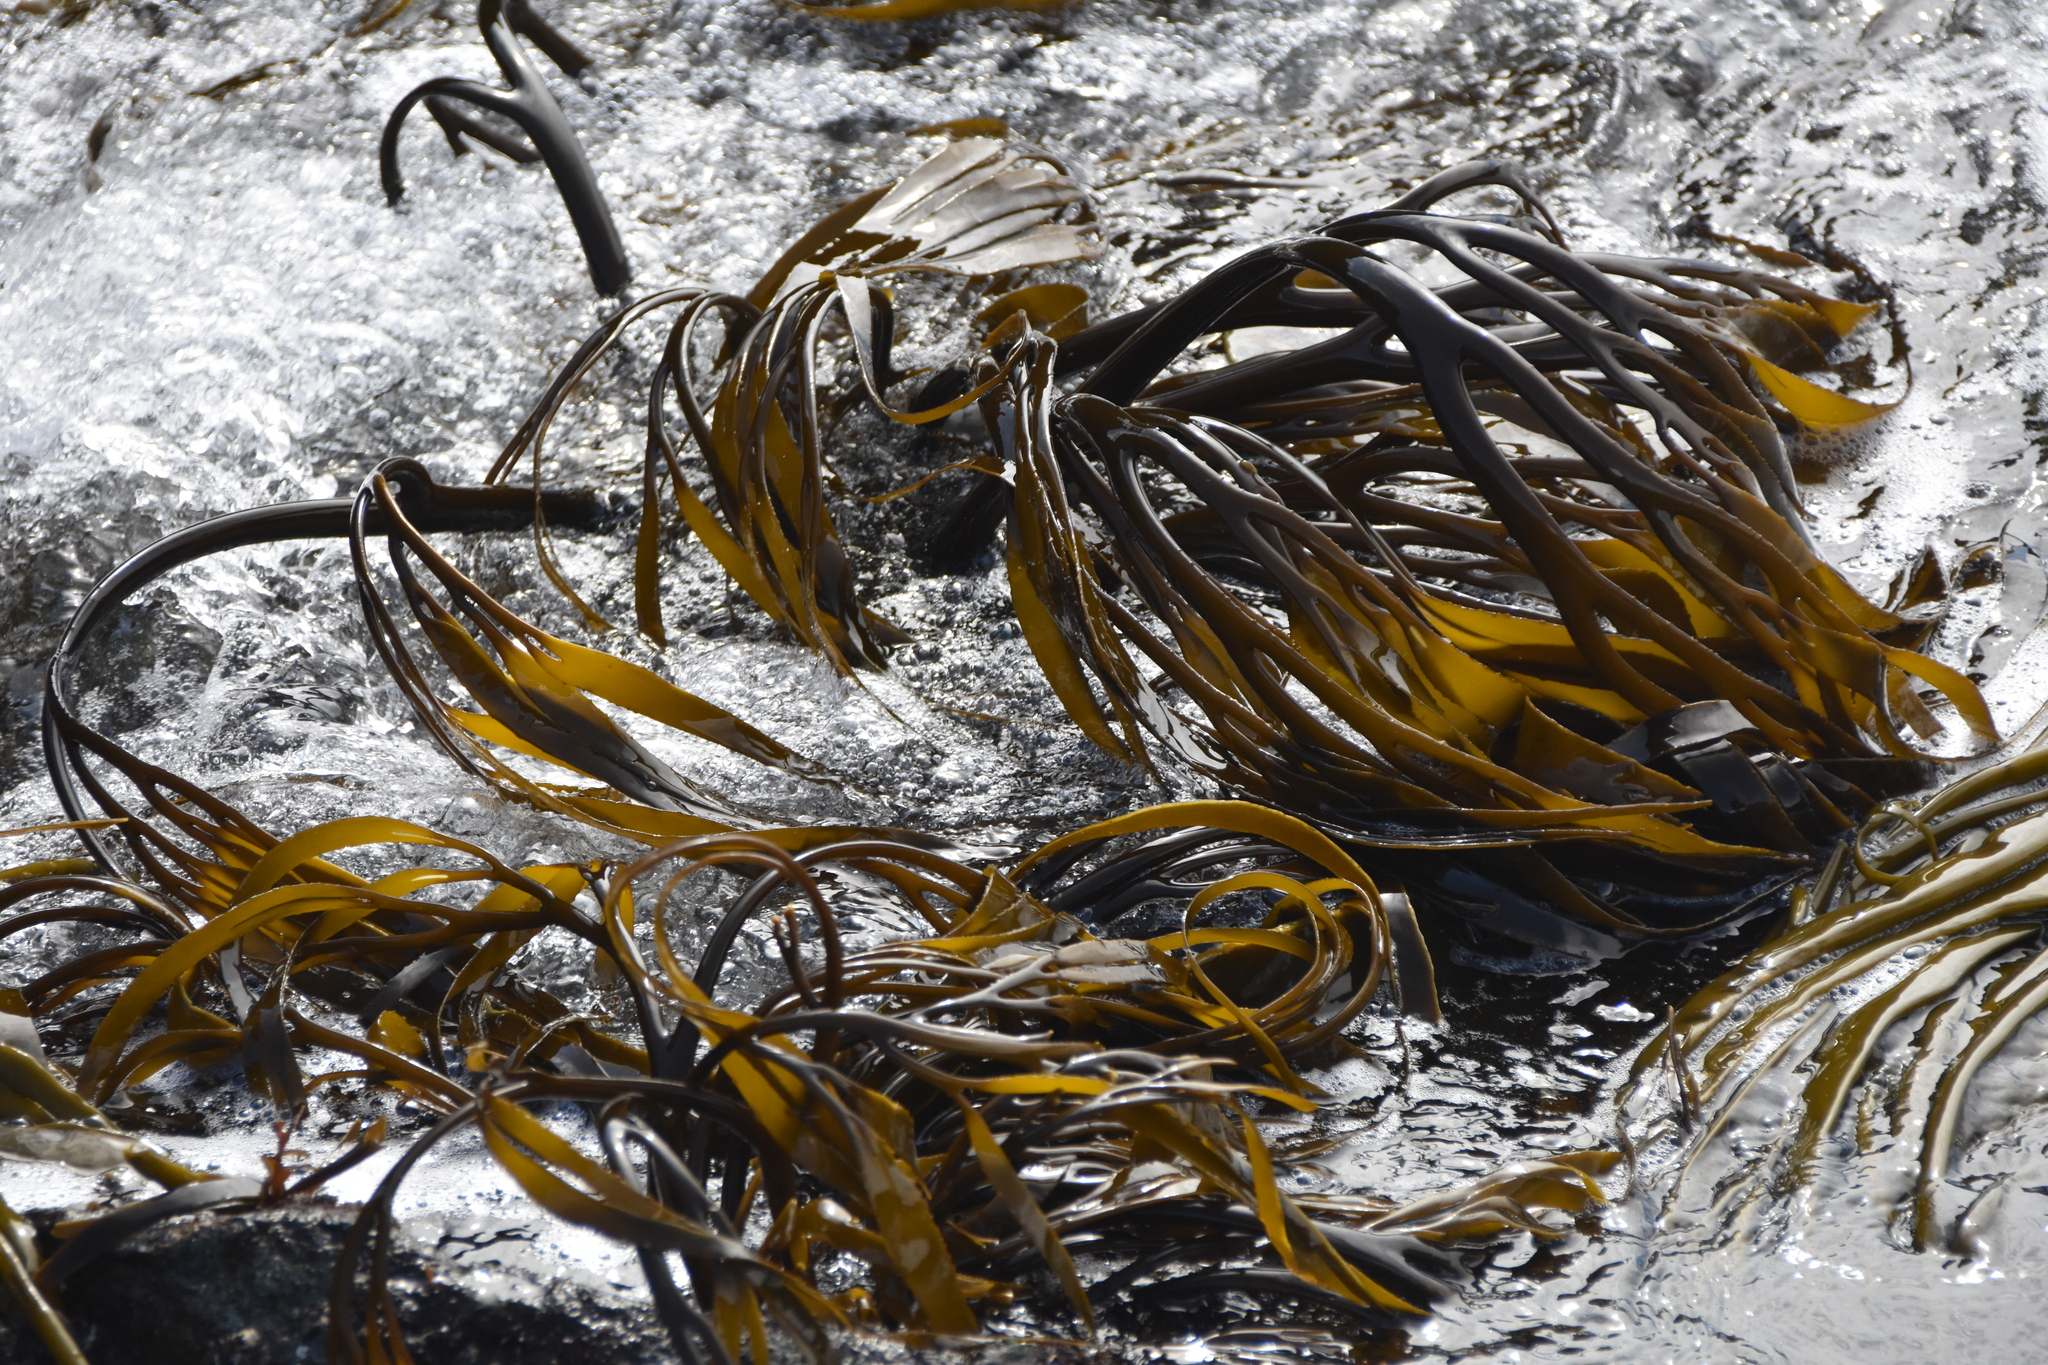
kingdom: Chromista
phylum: Ochrophyta
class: Phaeophyceae
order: Laminariales
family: Lessoniaceae
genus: Lessonia
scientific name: Lessonia spicata
